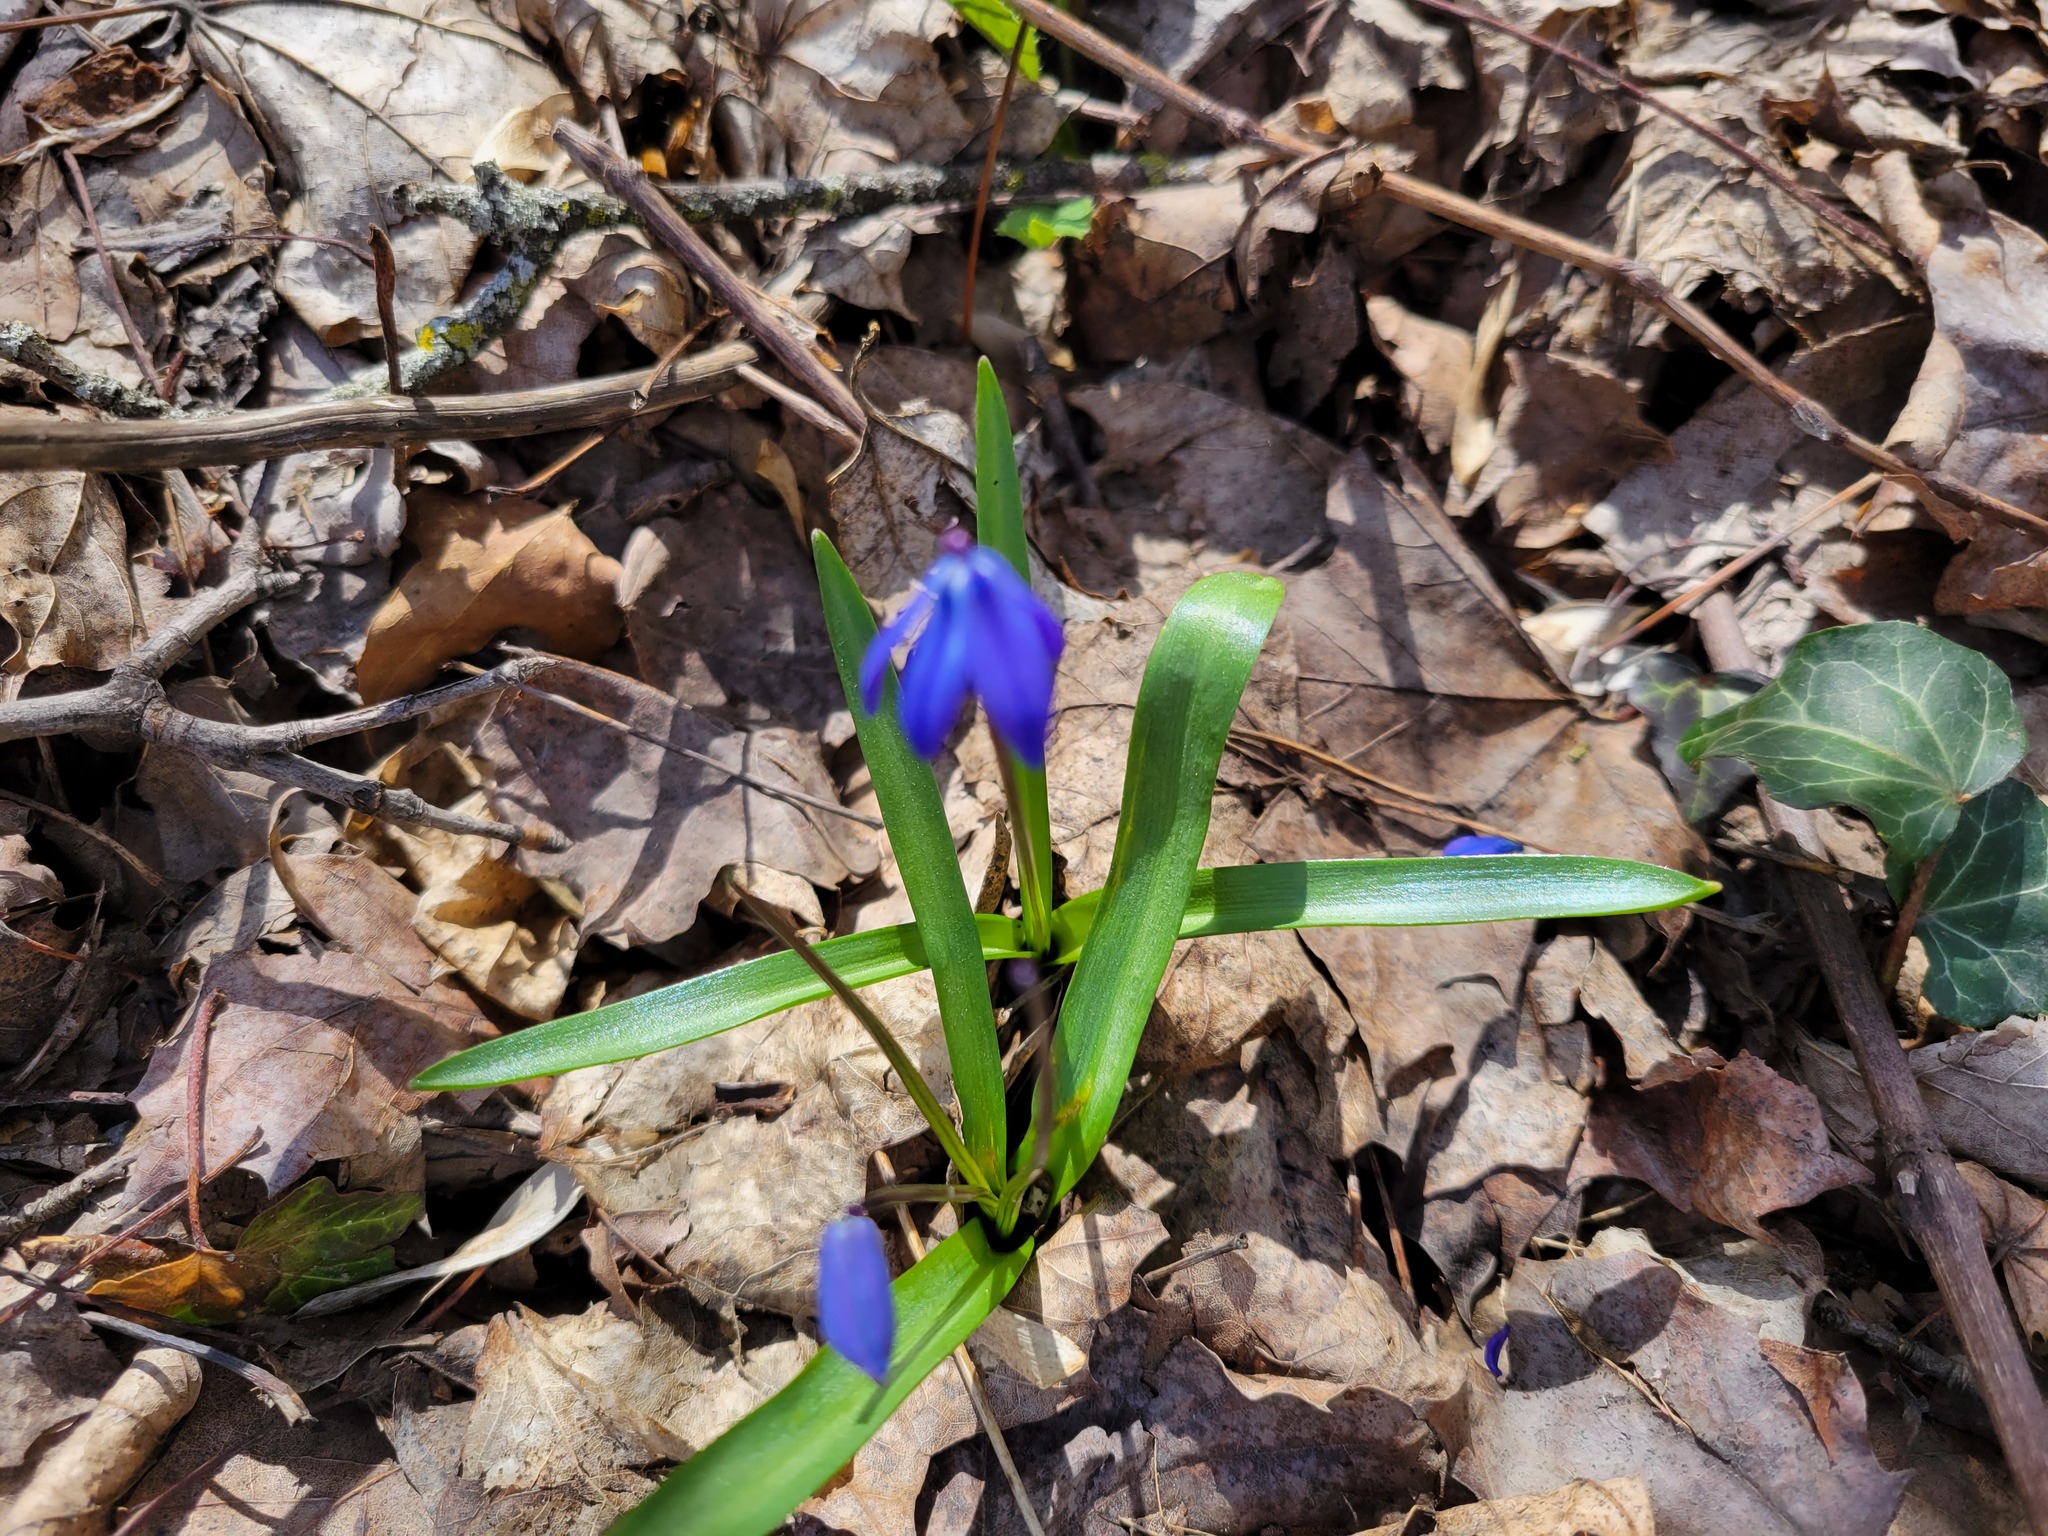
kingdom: Plantae
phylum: Tracheophyta
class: Liliopsida
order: Asparagales
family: Asparagaceae
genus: Scilla
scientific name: Scilla siberica
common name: Siberian squill
